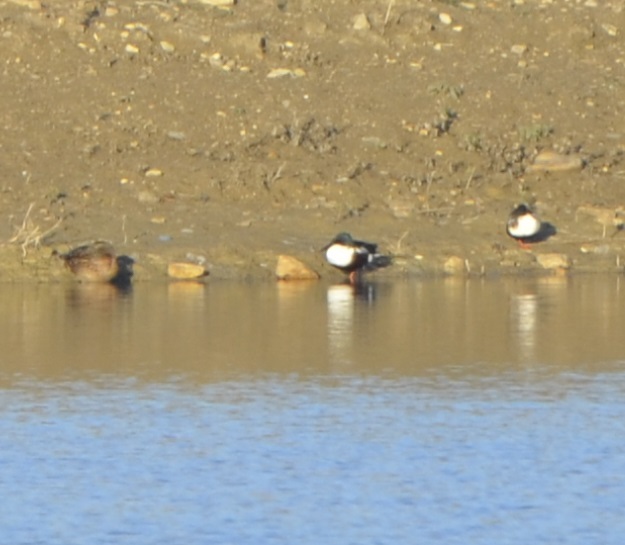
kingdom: Animalia
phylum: Chordata
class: Aves
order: Anseriformes
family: Anatidae
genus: Spatula
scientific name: Spatula clypeata
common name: Northern shoveler
